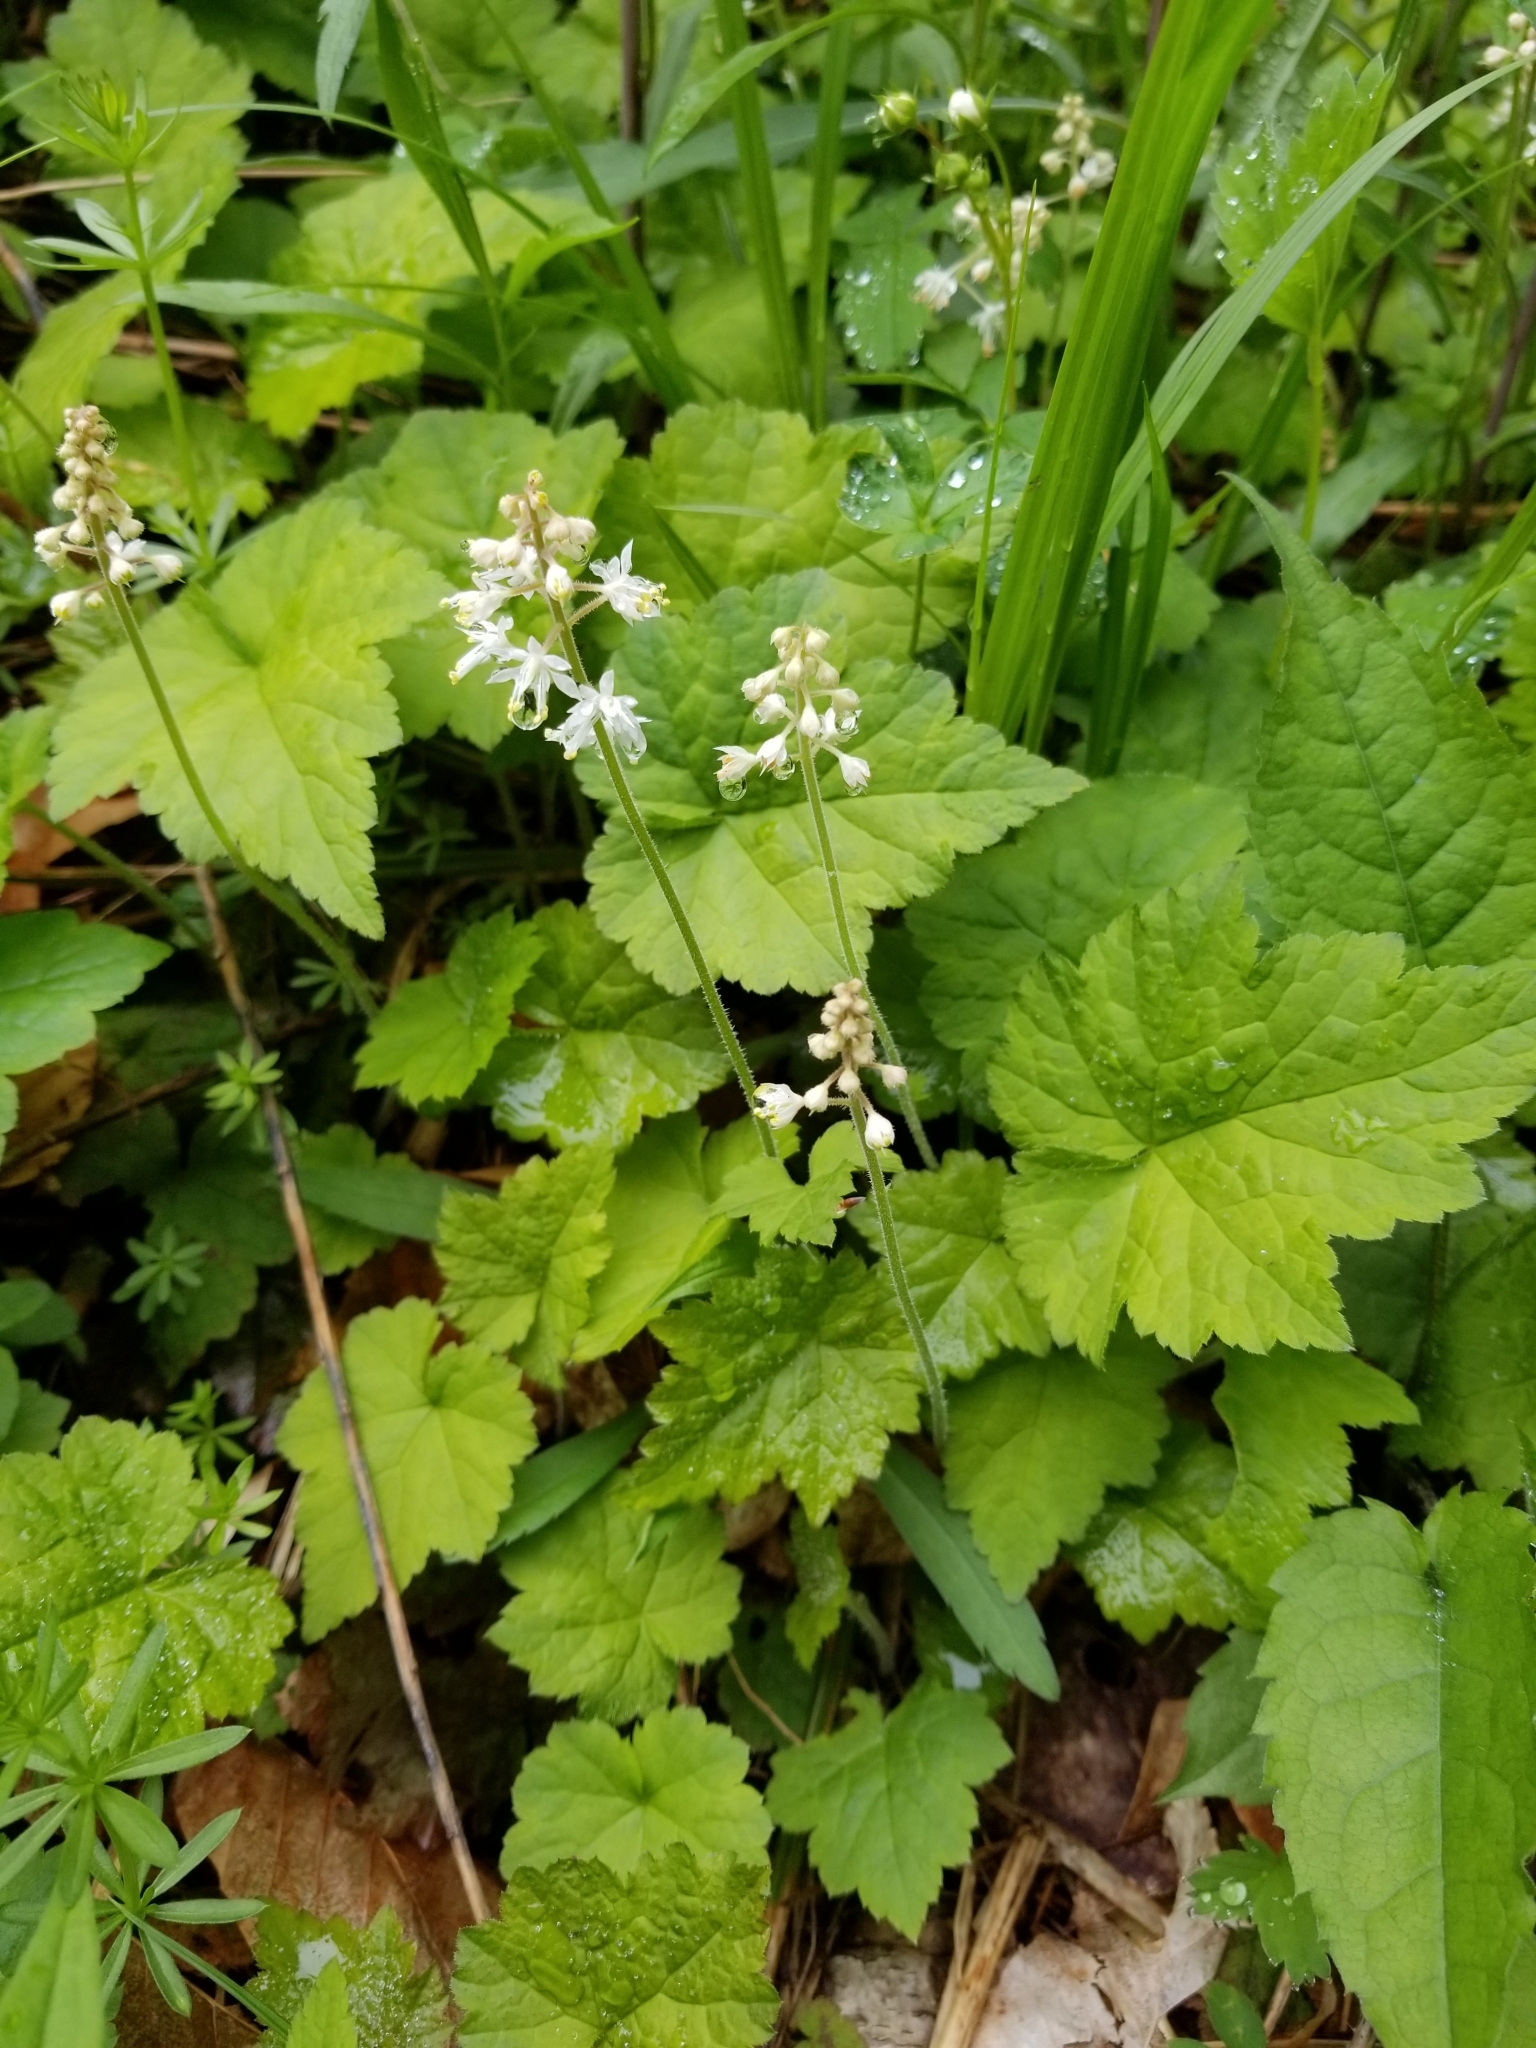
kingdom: Plantae
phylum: Tracheophyta
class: Magnoliopsida
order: Saxifragales
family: Saxifragaceae
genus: Tiarella
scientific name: Tiarella stolonifera
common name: Stoloniferous foamflower
